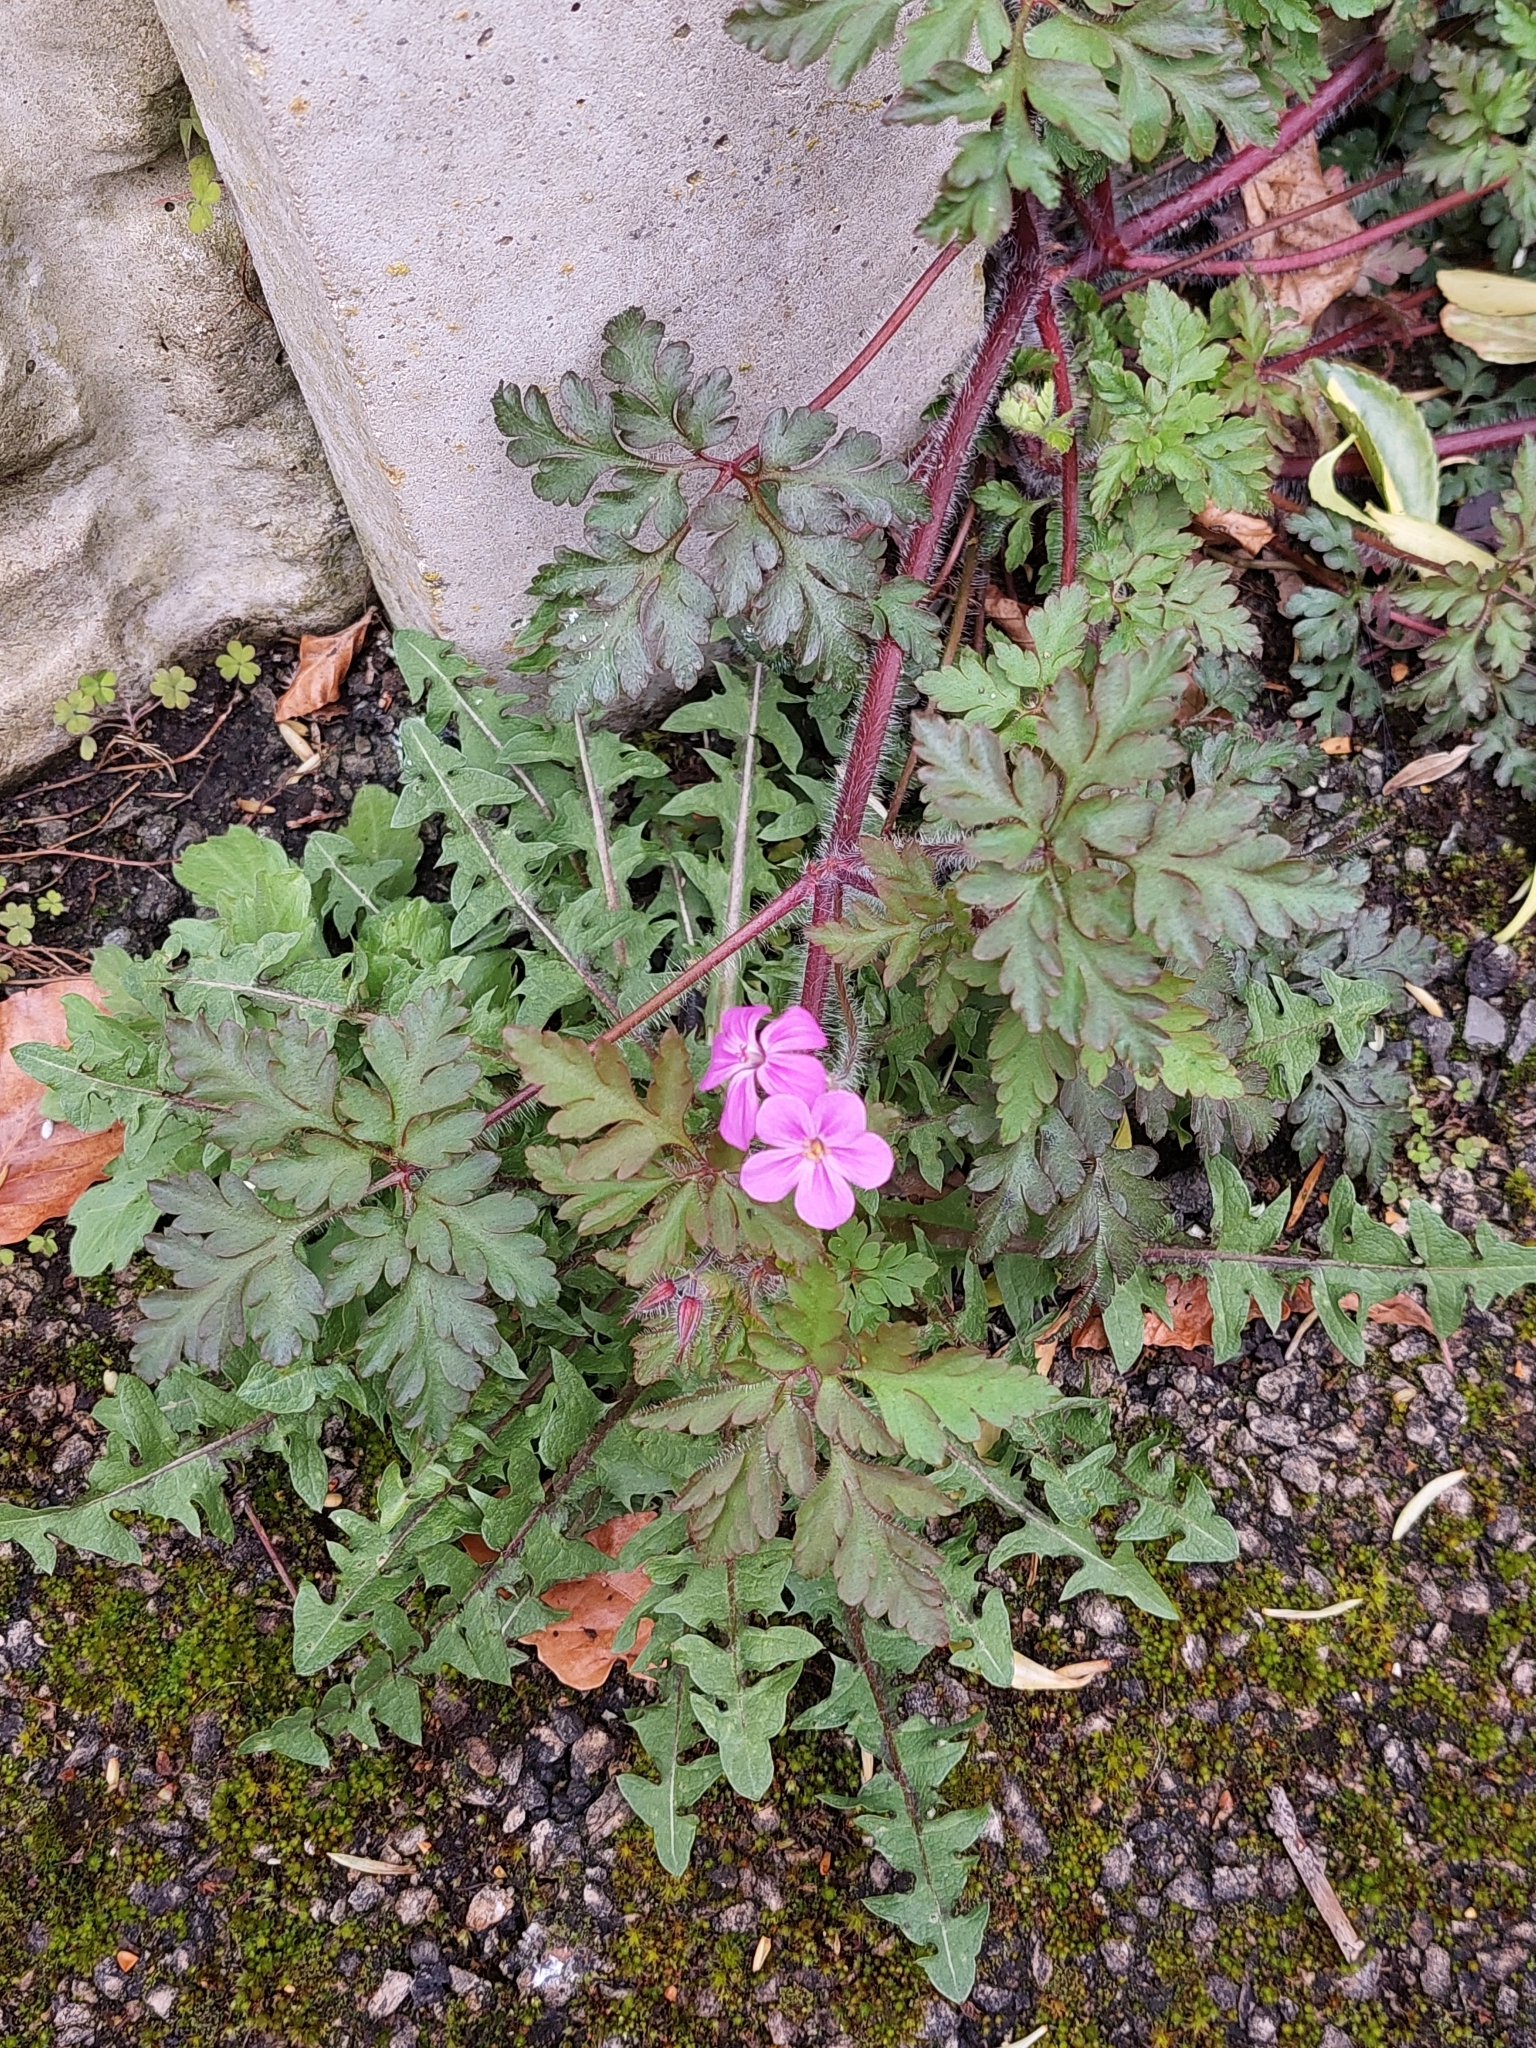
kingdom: Plantae
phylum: Tracheophyta
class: Magnoliopsida
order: Geraniales
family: Geraniaceae
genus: Geranium
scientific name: Geranium robertianum
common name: Herb-robert
